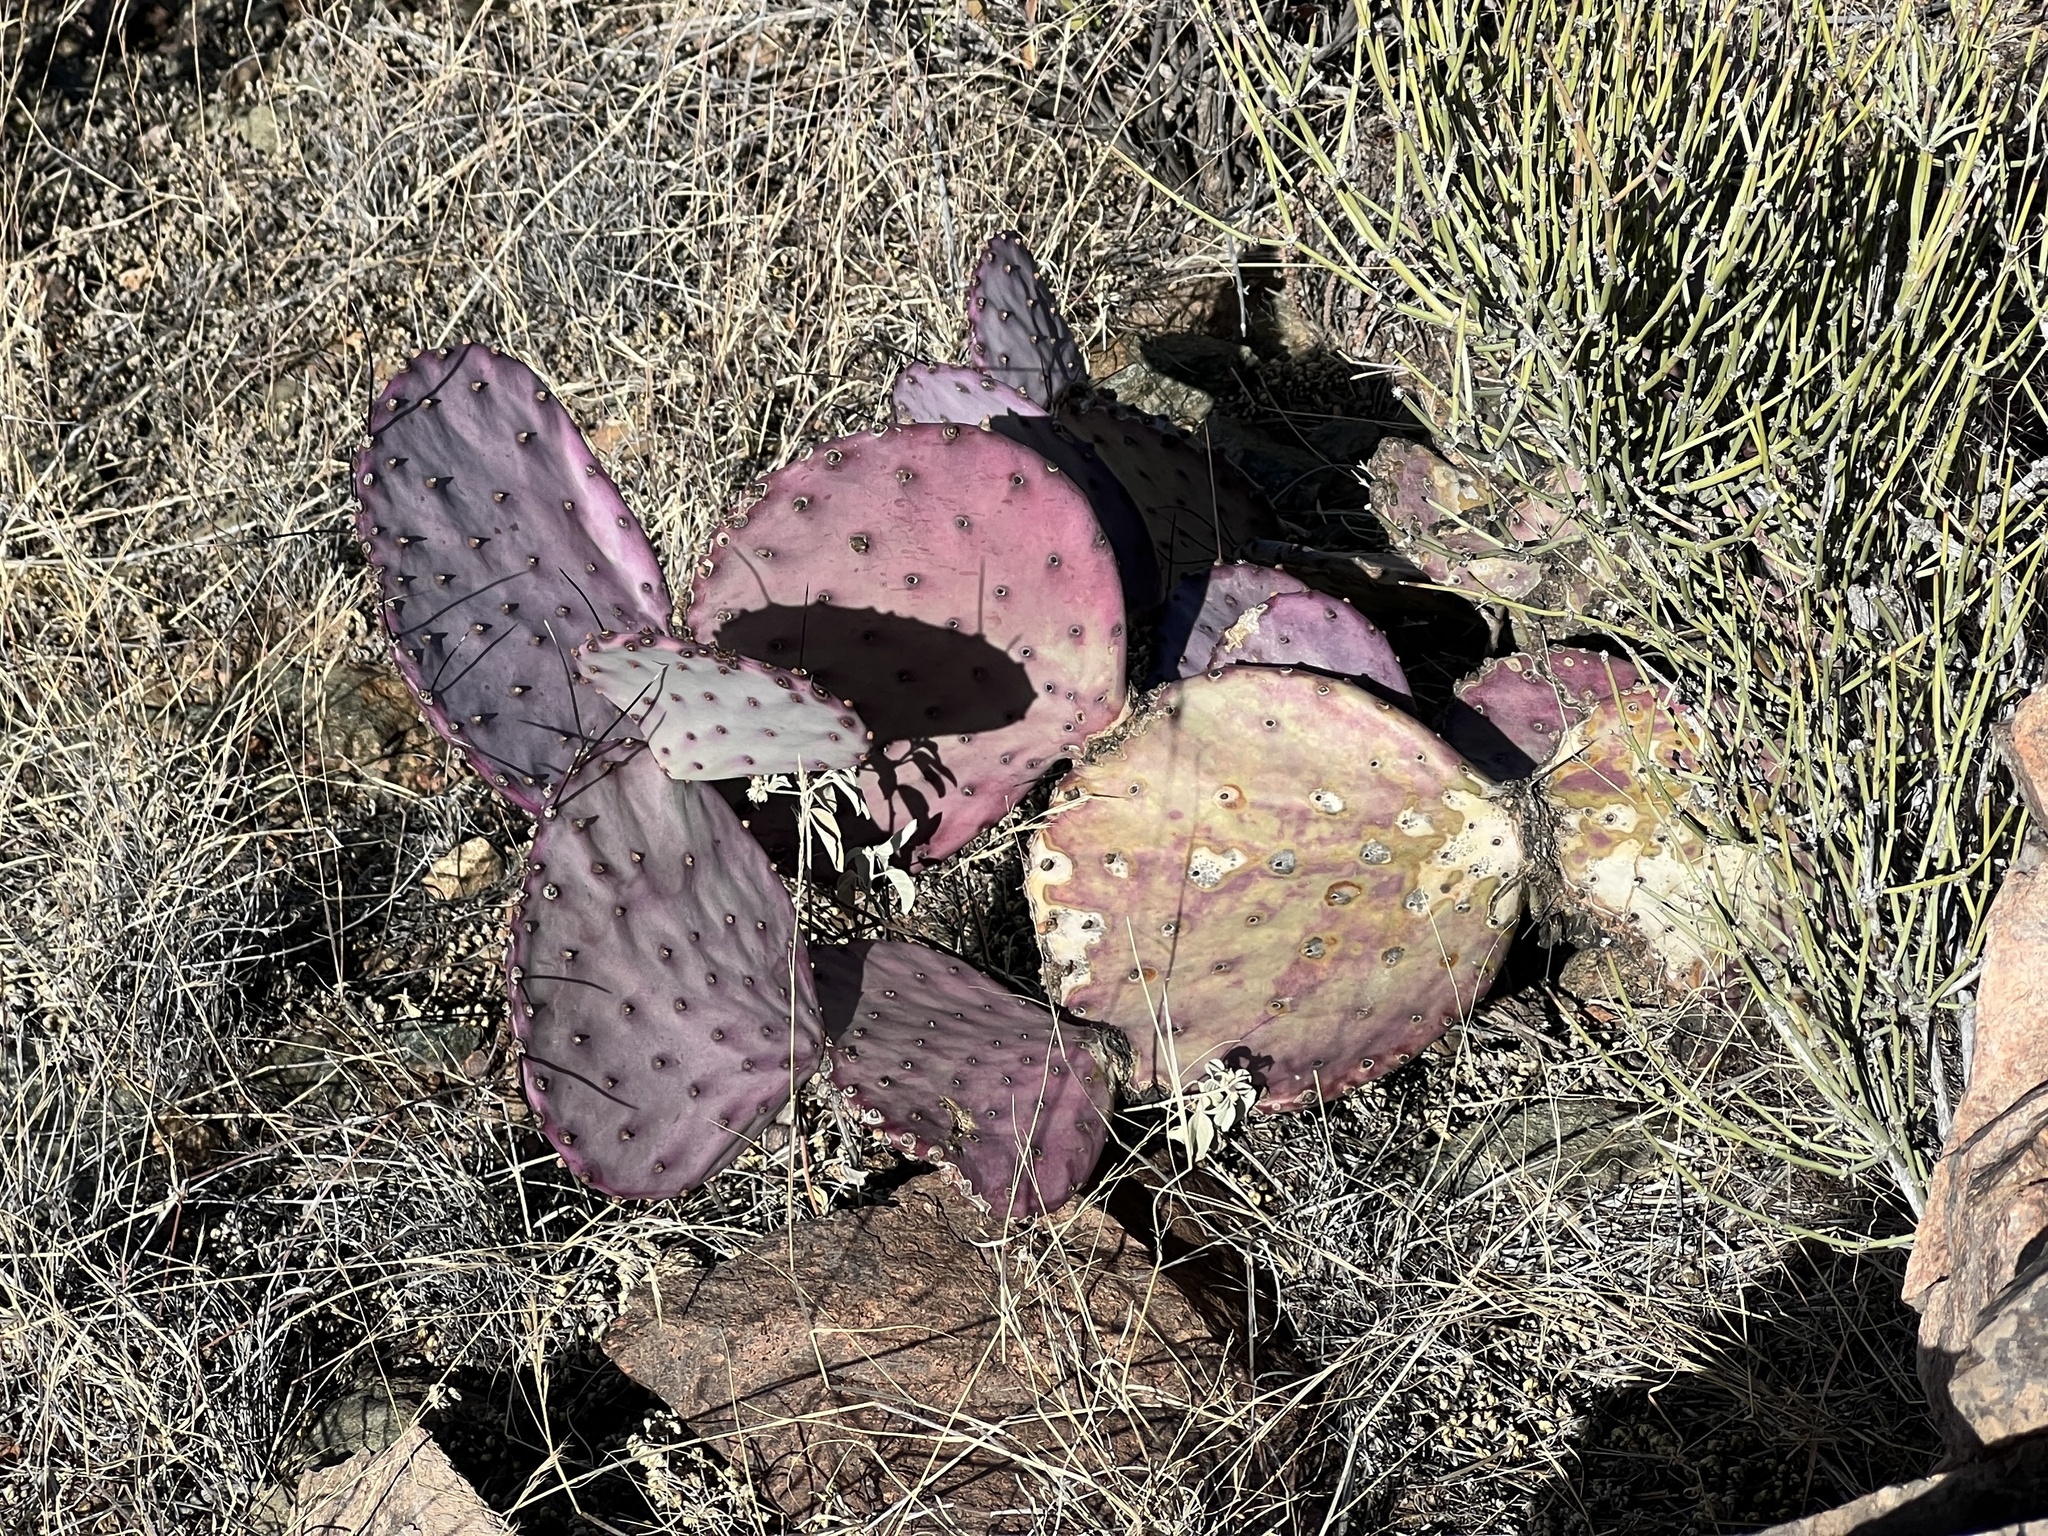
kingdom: Plantae
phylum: Tracheophyta
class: Magnoliopsida
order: Caryophyllales
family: Cactaceae
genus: Opuntia
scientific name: Opuntia macrocentra
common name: Purple prickly-pear
